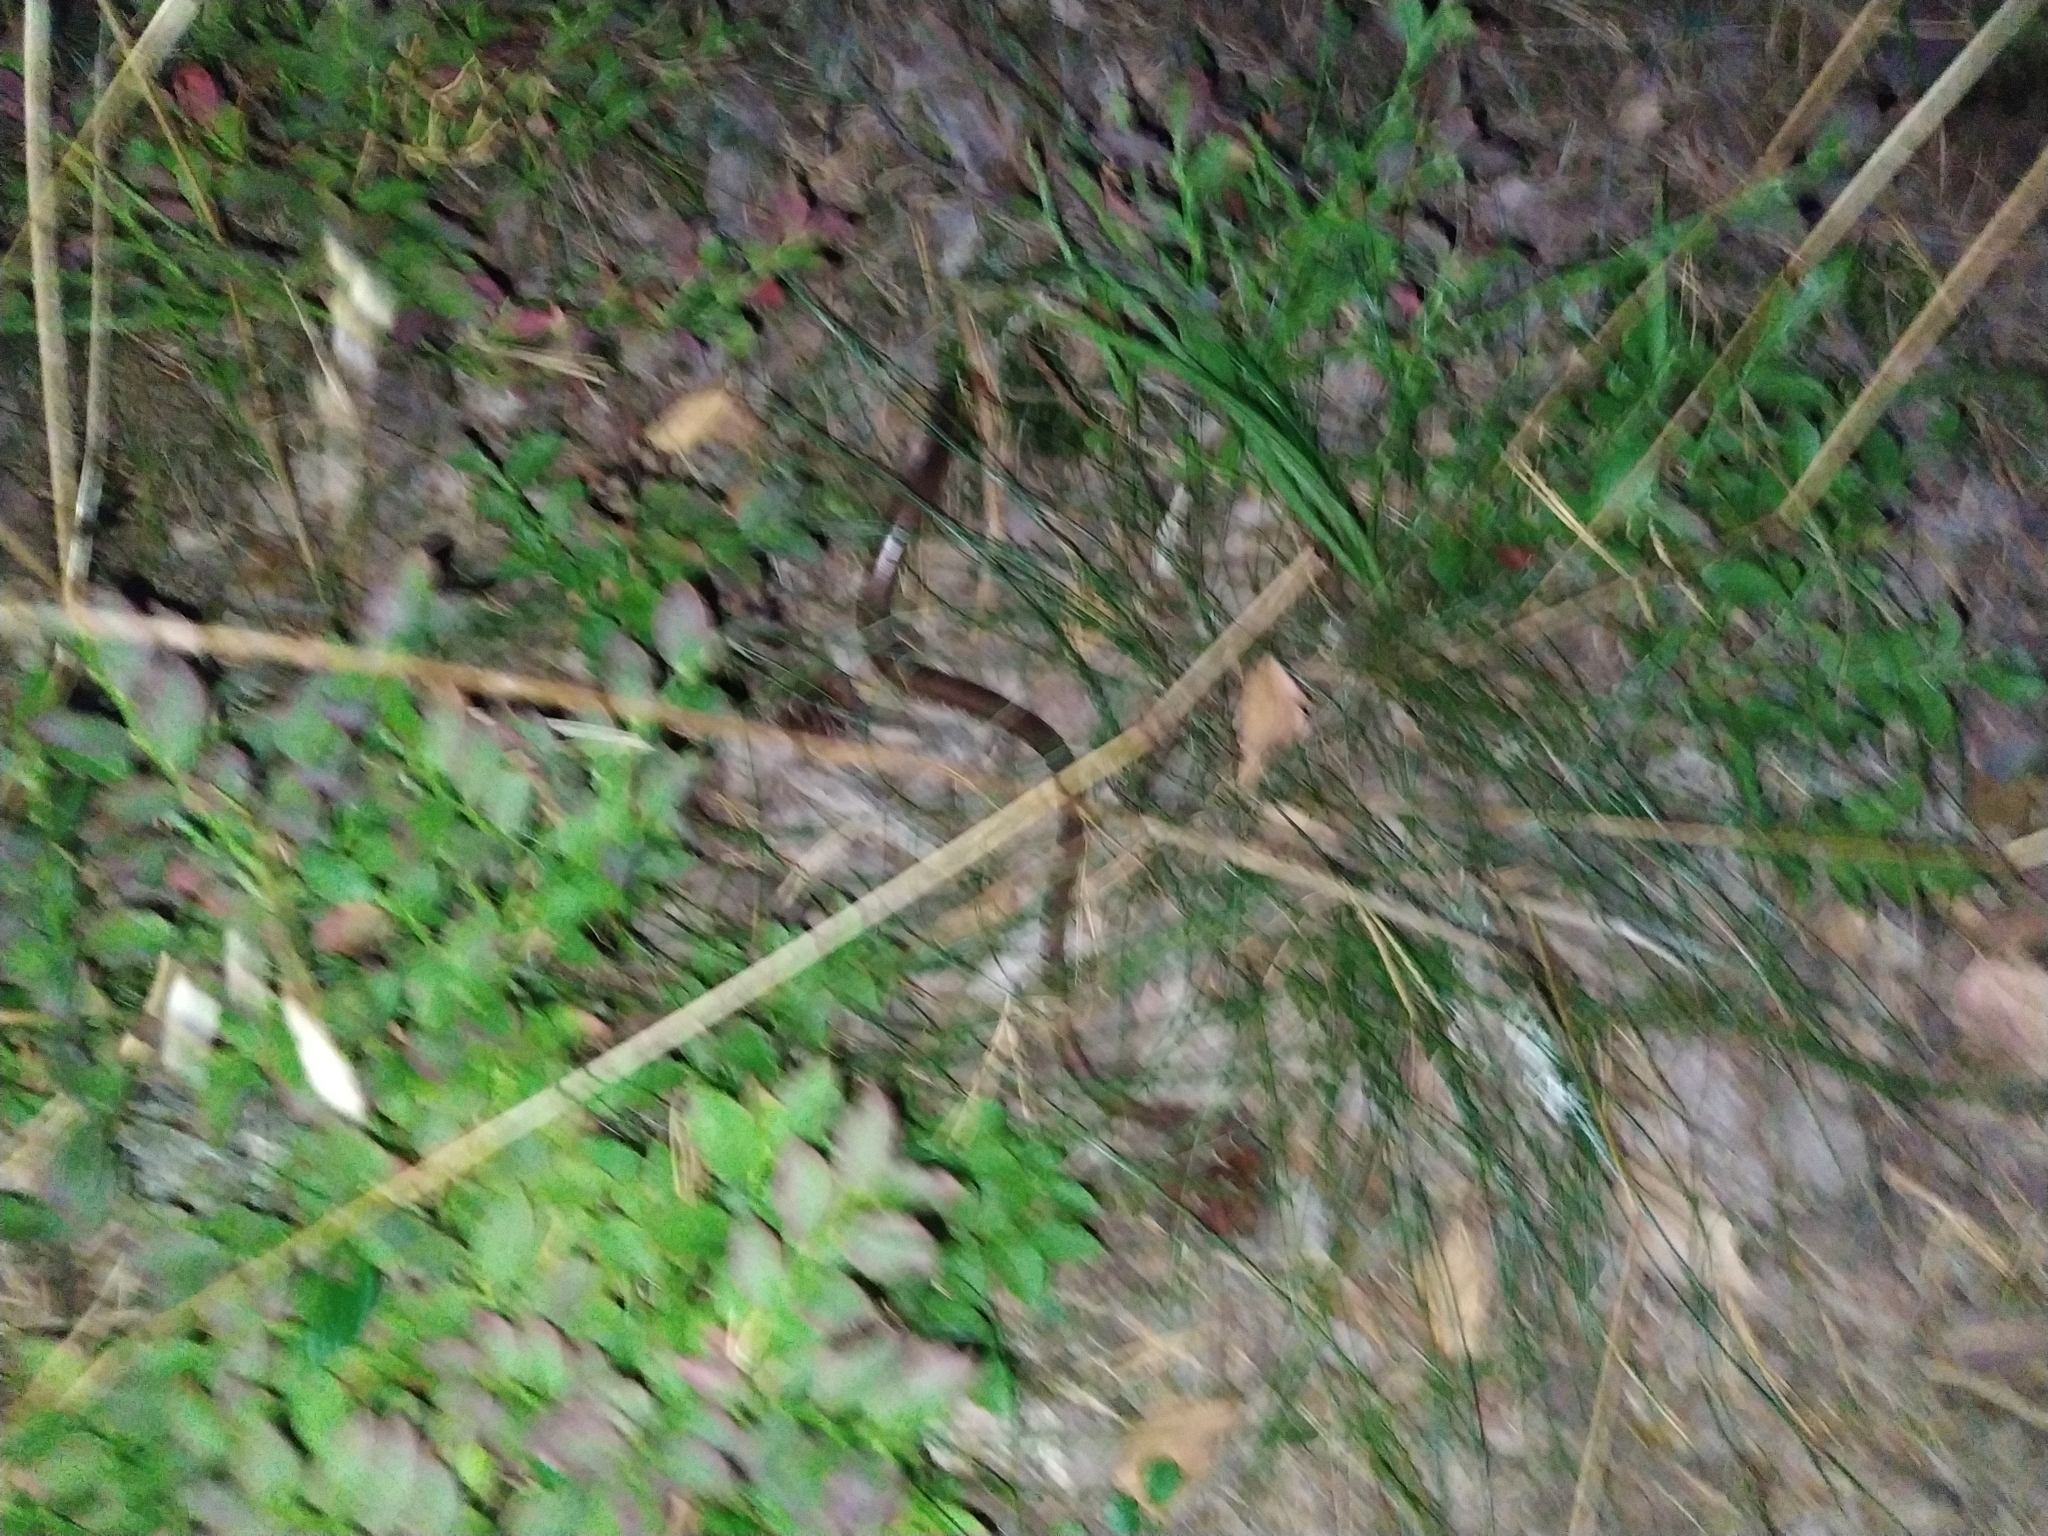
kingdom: Animalia
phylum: Chordata
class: Squamata
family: Anguidae
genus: Anguis
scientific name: Anguis colchica
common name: Slow worm
